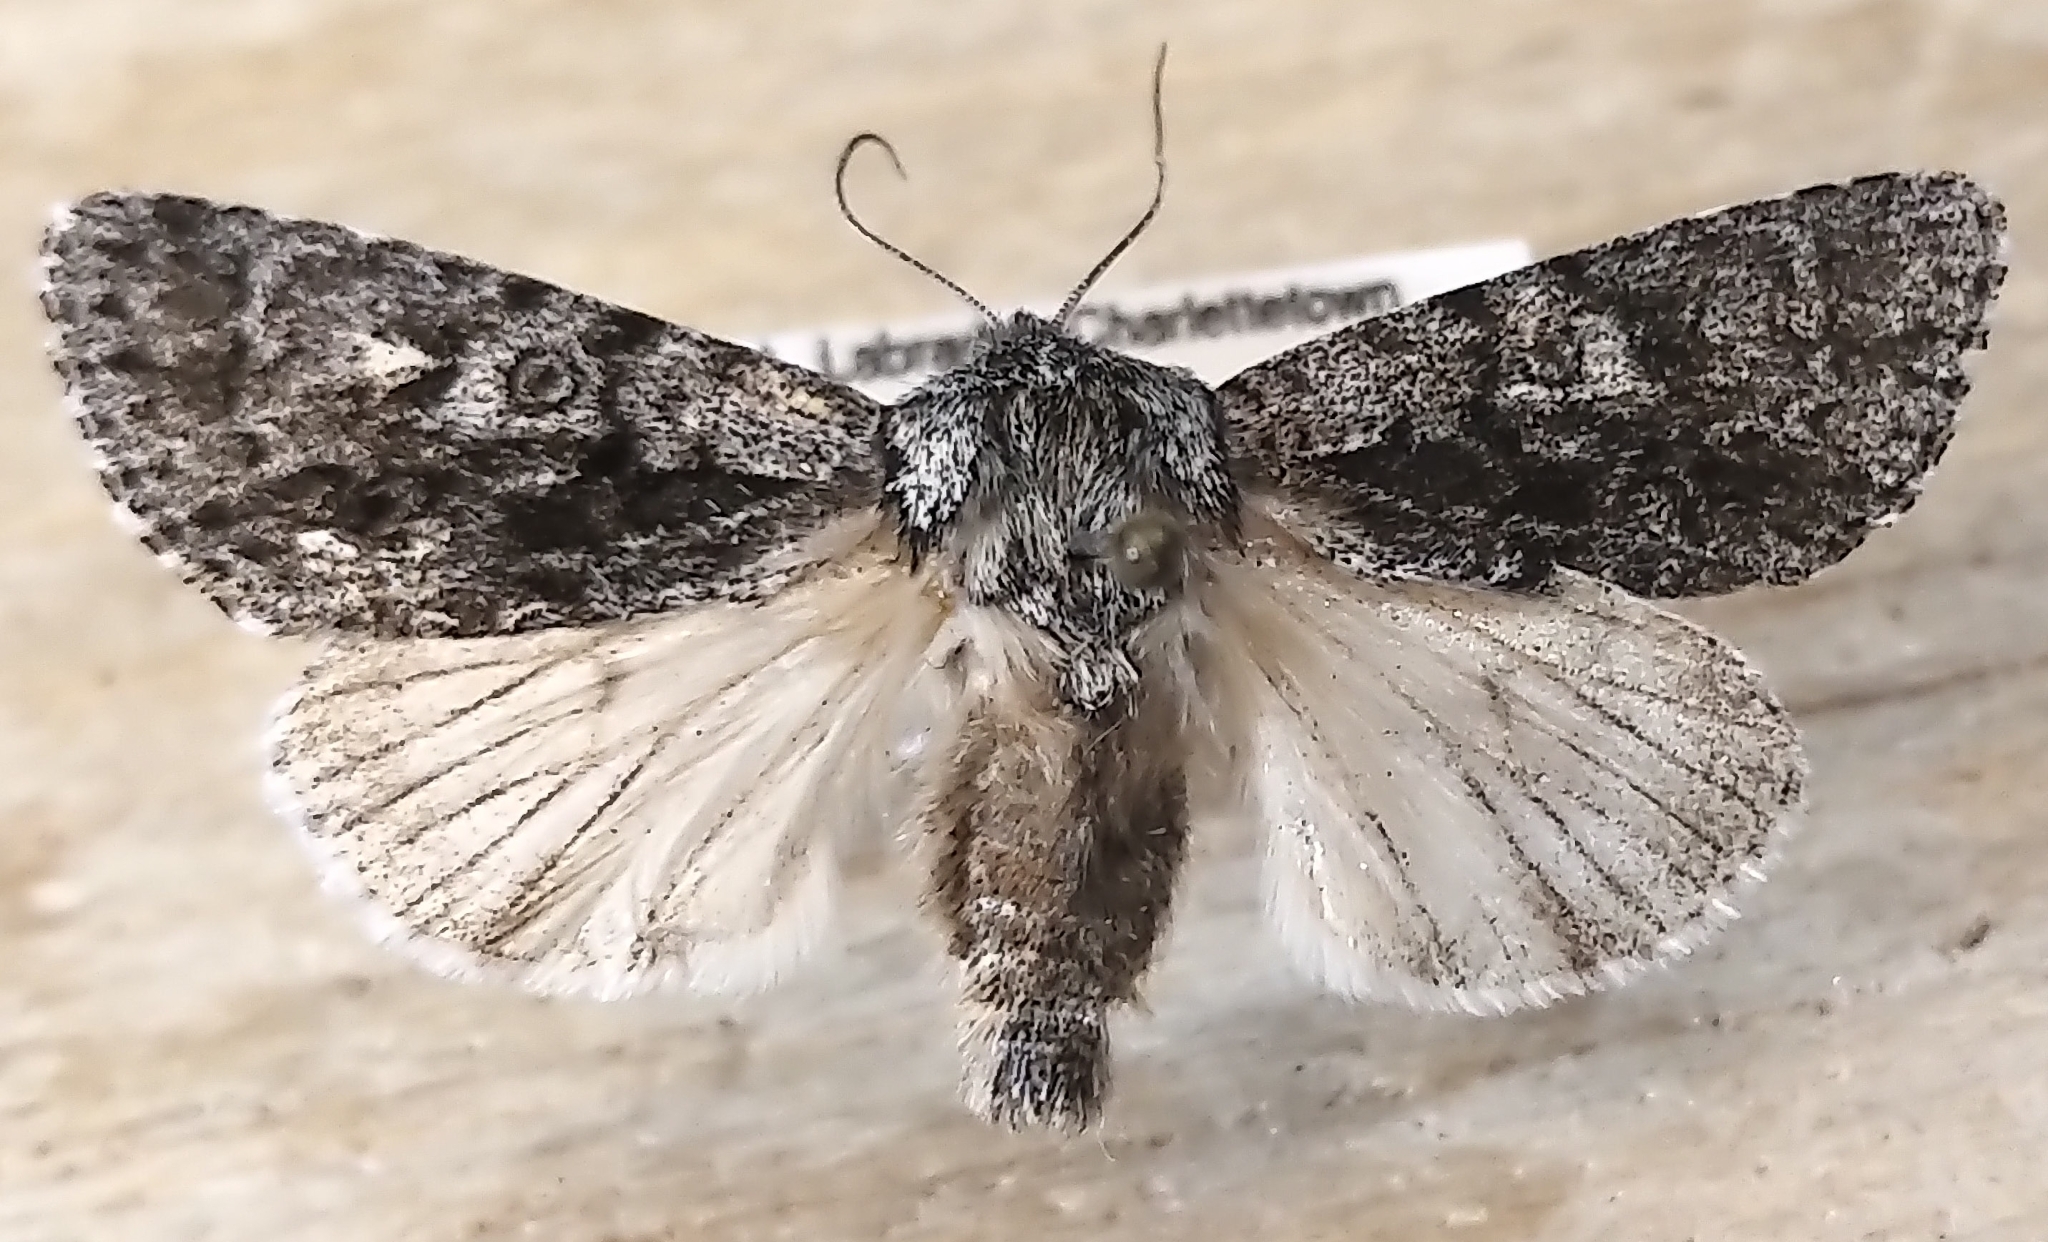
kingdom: Animalia
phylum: Arthropoda
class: Insecta
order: Lepidoptera
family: Noctuidae
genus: Acronicta
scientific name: Acronicta impressa
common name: Impressed dagger
